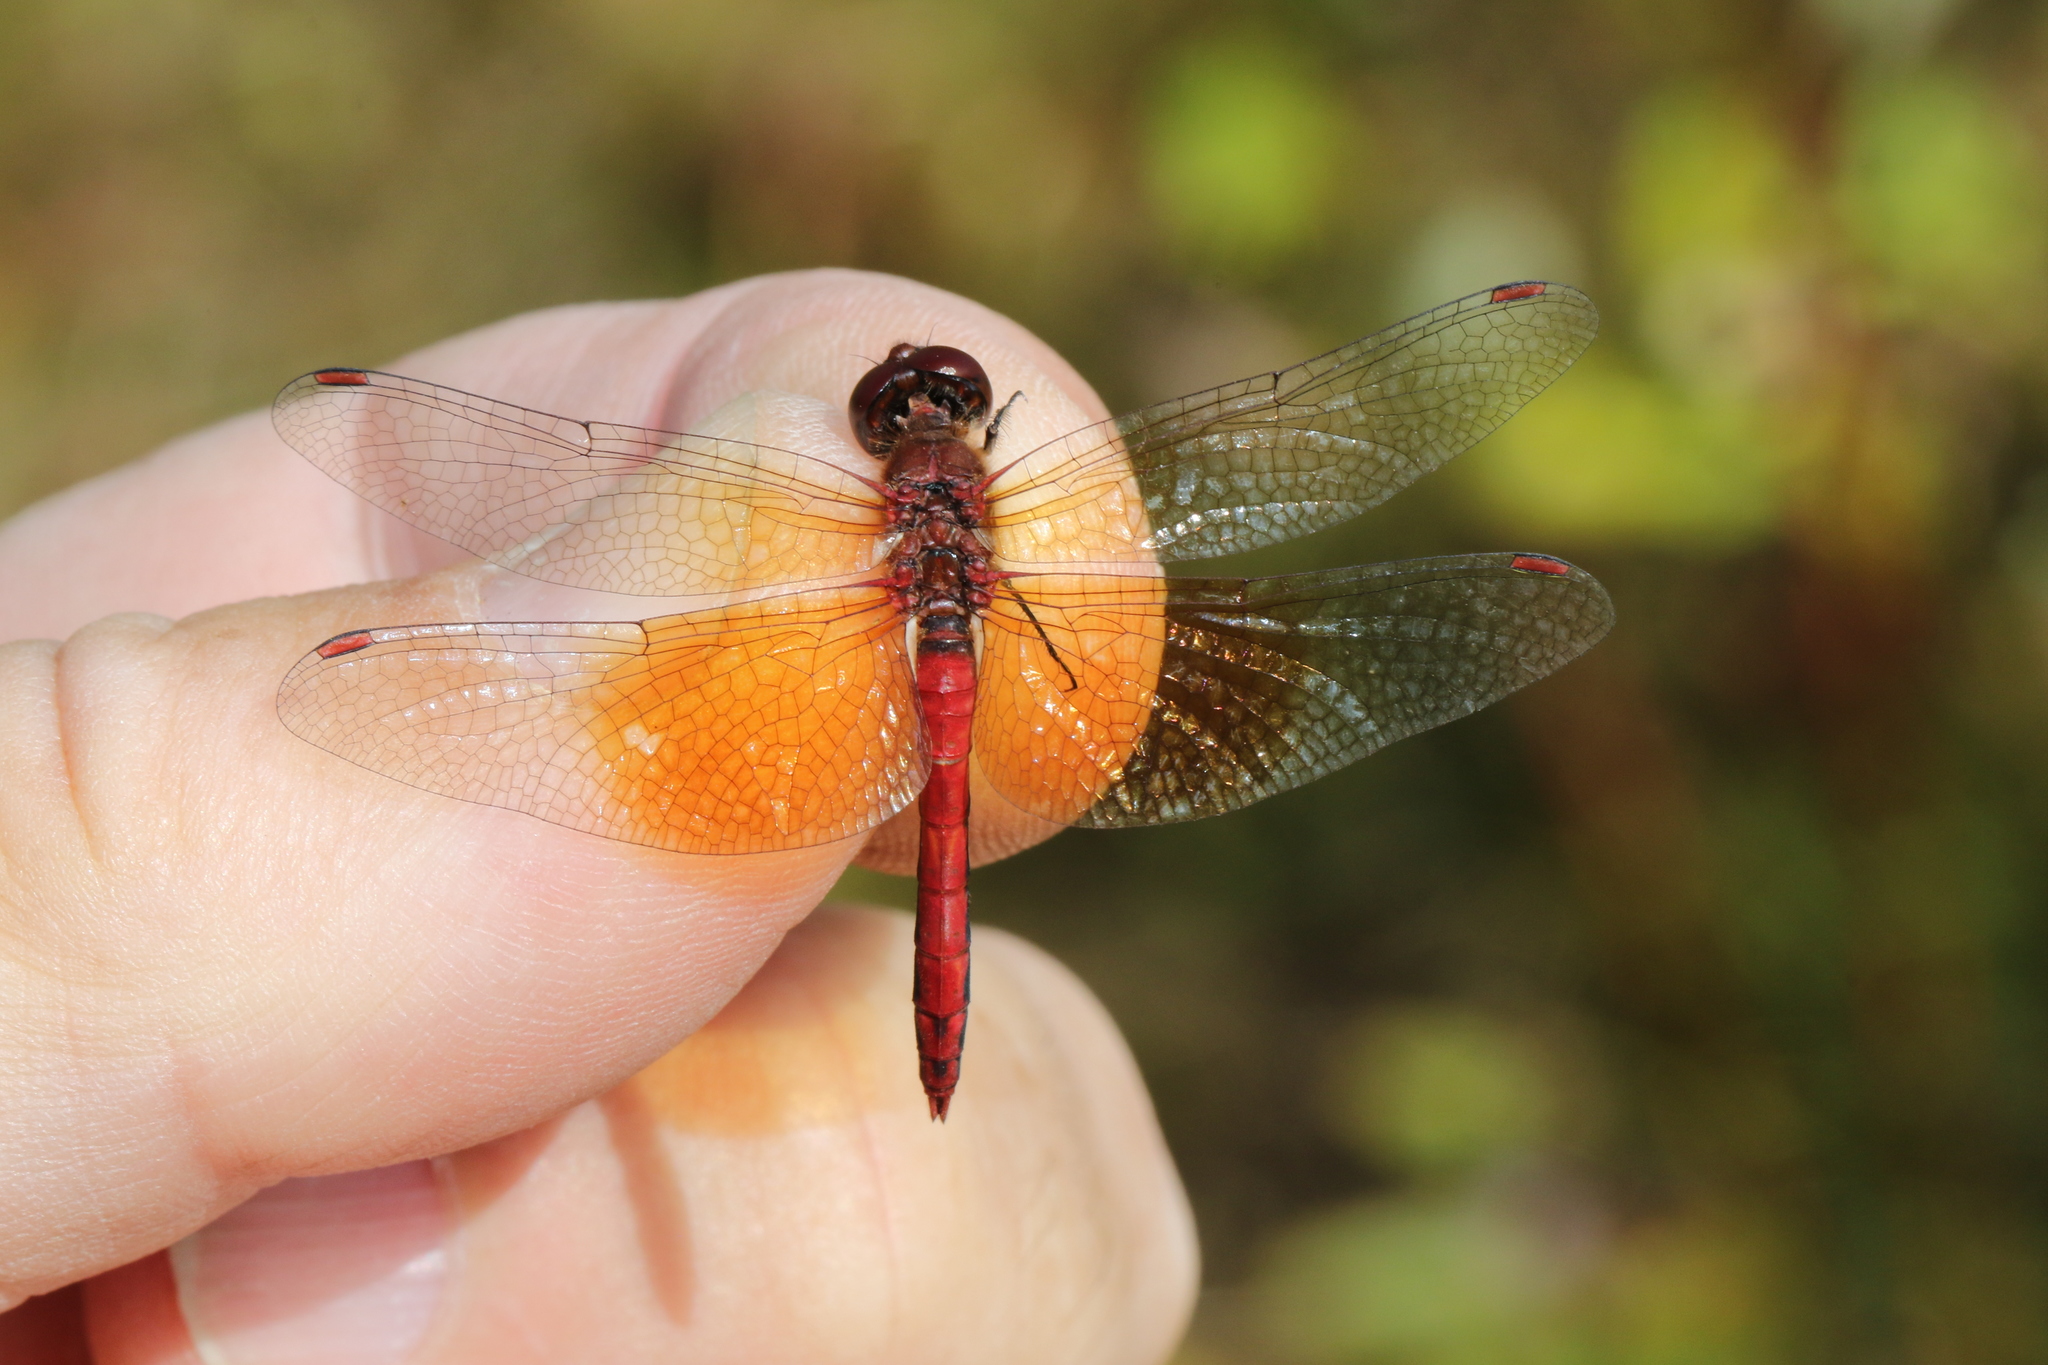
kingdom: Animalia
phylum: Arthropoda
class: Insecta
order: Odonata
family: Libellulidae
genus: Sympetrum
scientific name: Sympetrum semicinctum
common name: Band-winged meadowhawk
